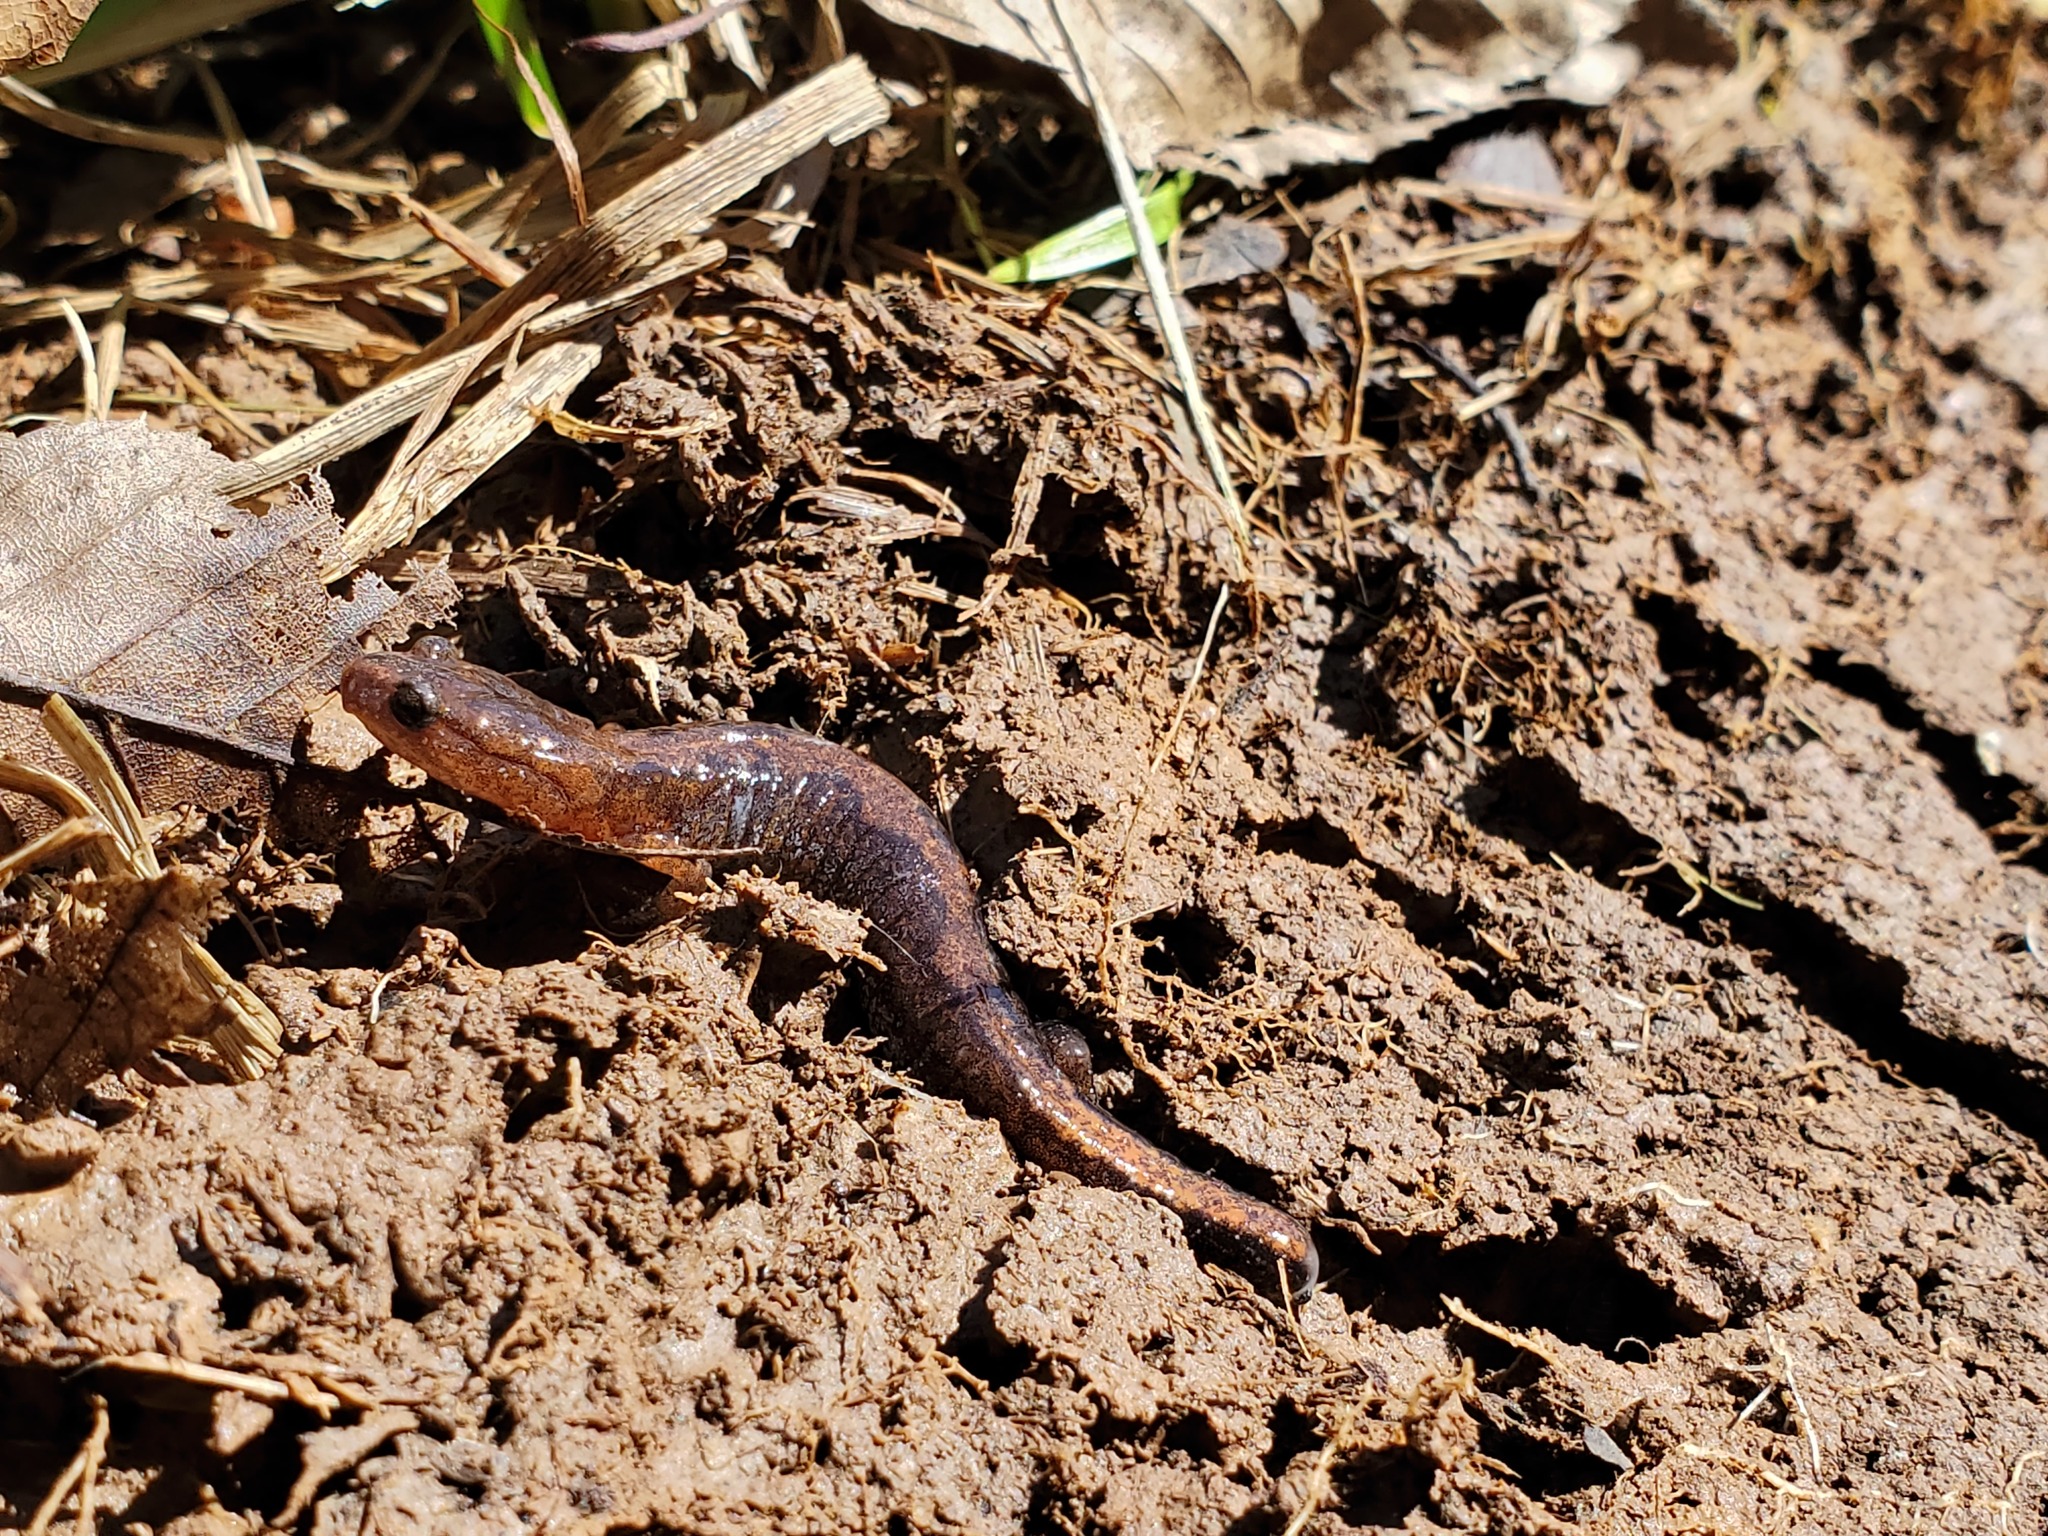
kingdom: Animalia
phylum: Chordata
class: Amphibia
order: Caudata
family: Plethodontidae
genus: Plethodon
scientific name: Plethodon dorsalis
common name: Northern zigzag salamander
